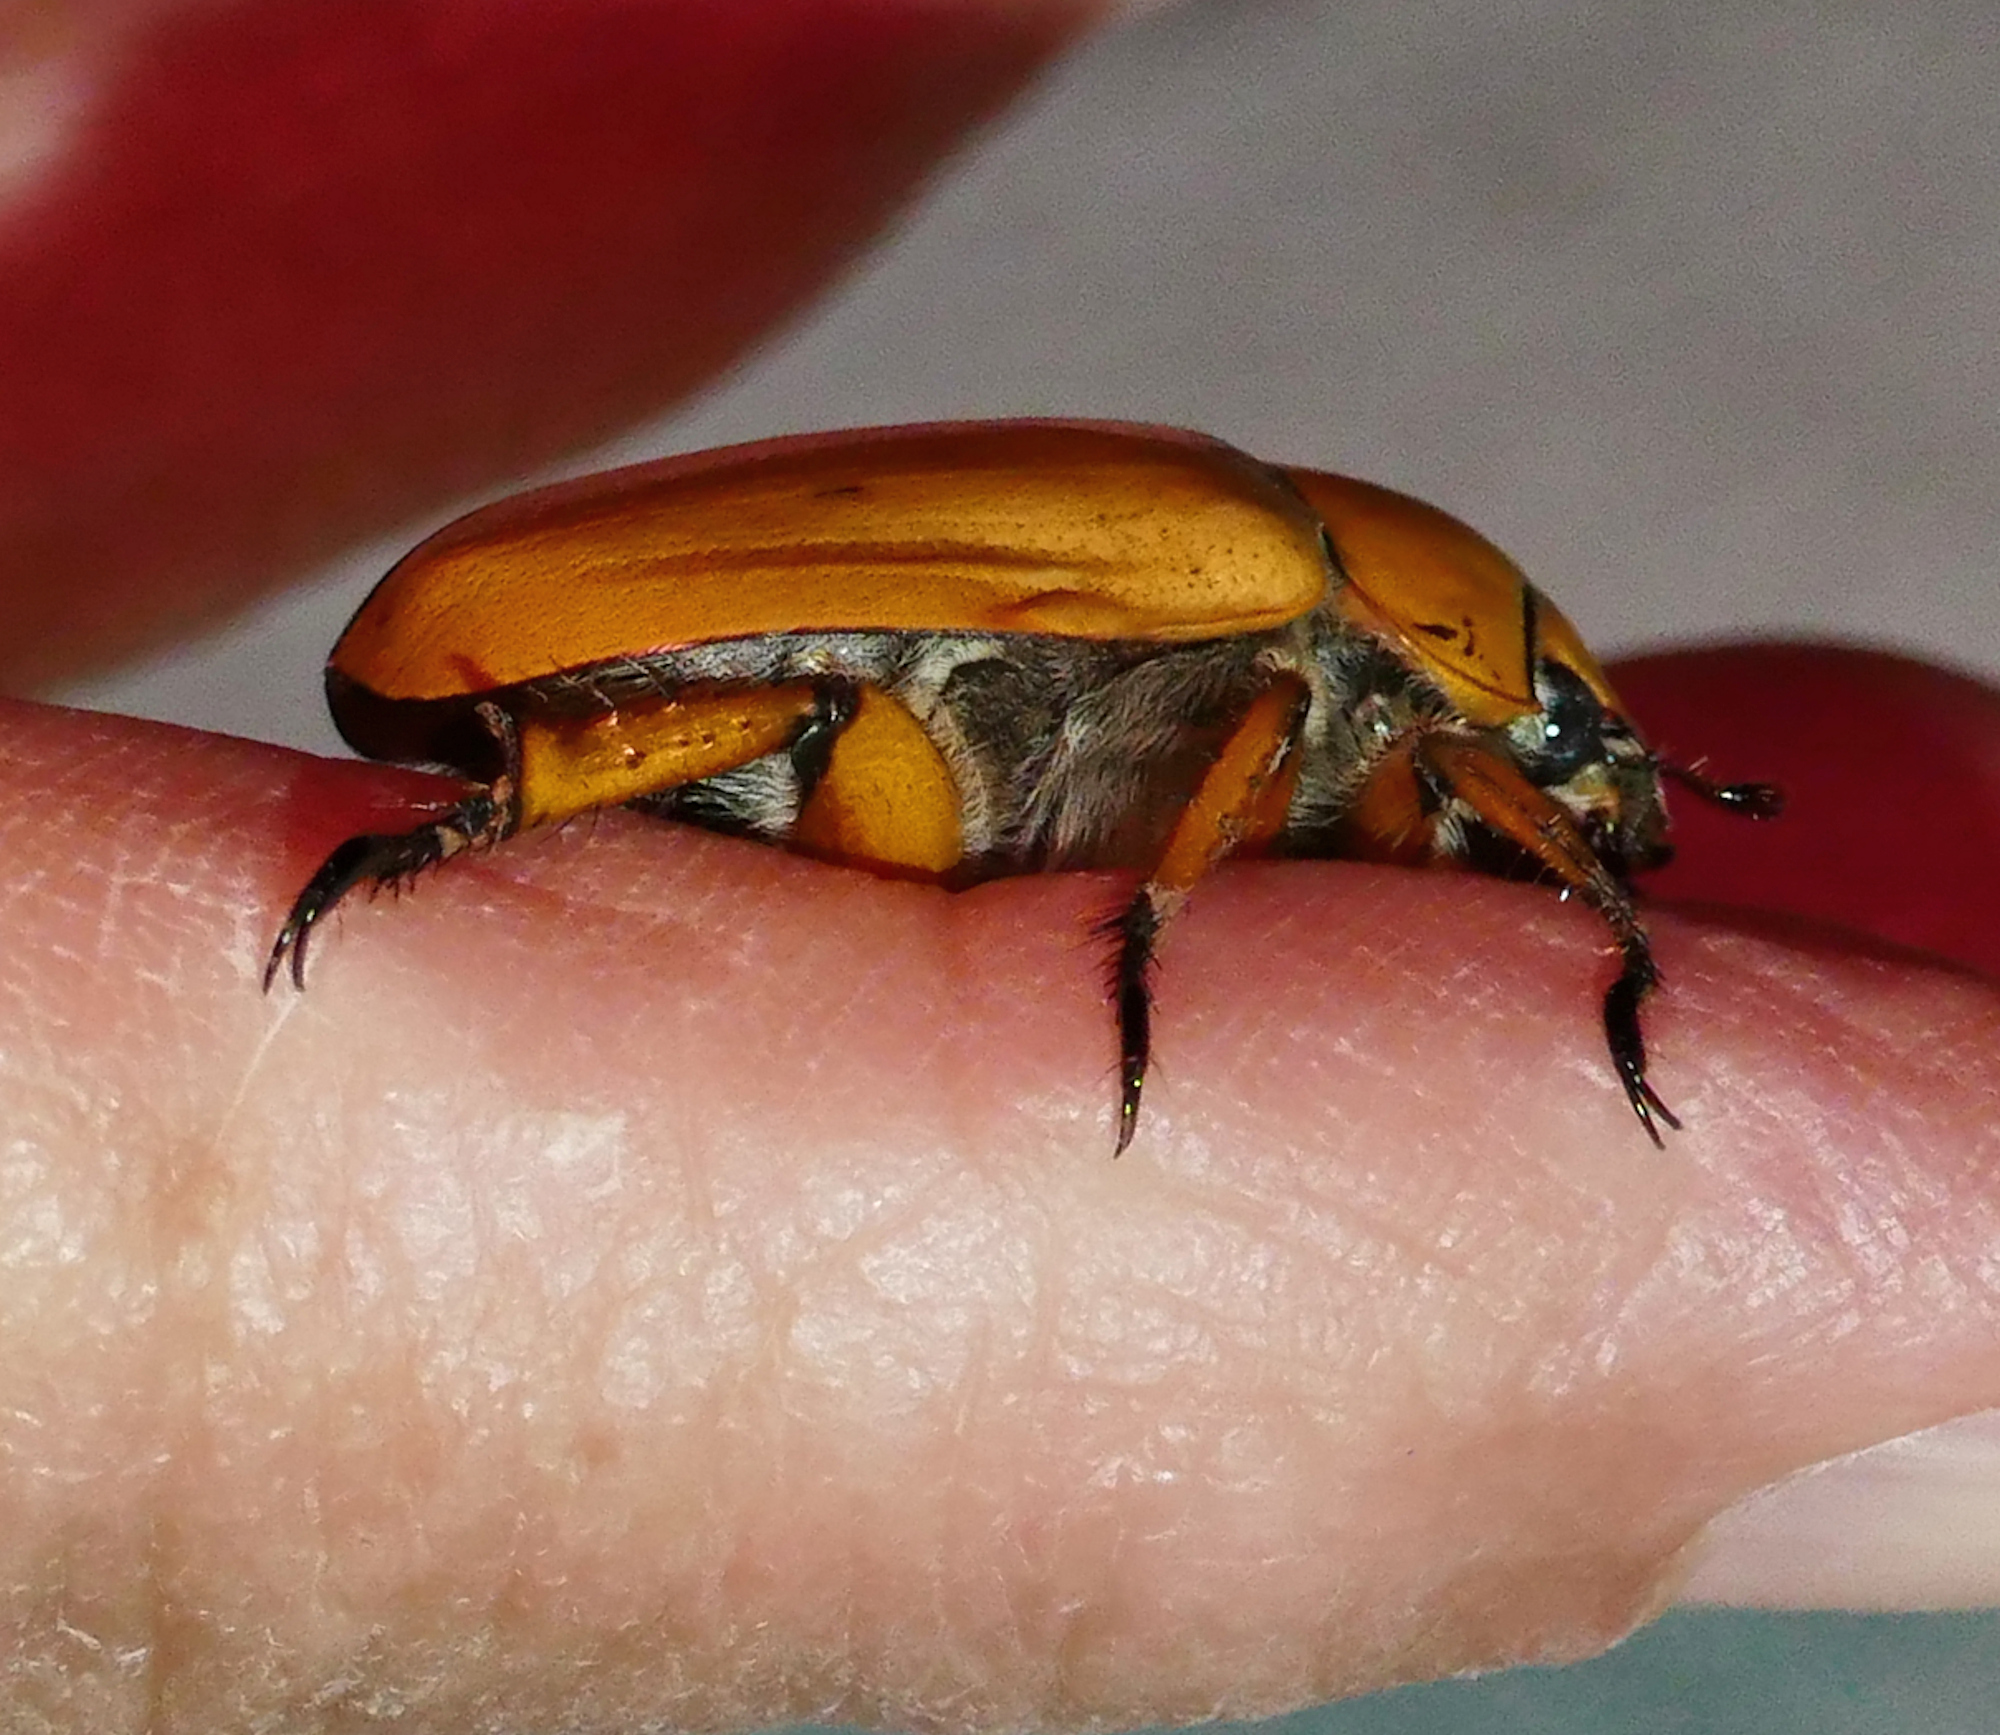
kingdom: Animalia
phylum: Arthropoda
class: Insecta
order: Coleoptera
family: Scarabaeidae
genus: Cotalpa
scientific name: Cotalpa consobrina
